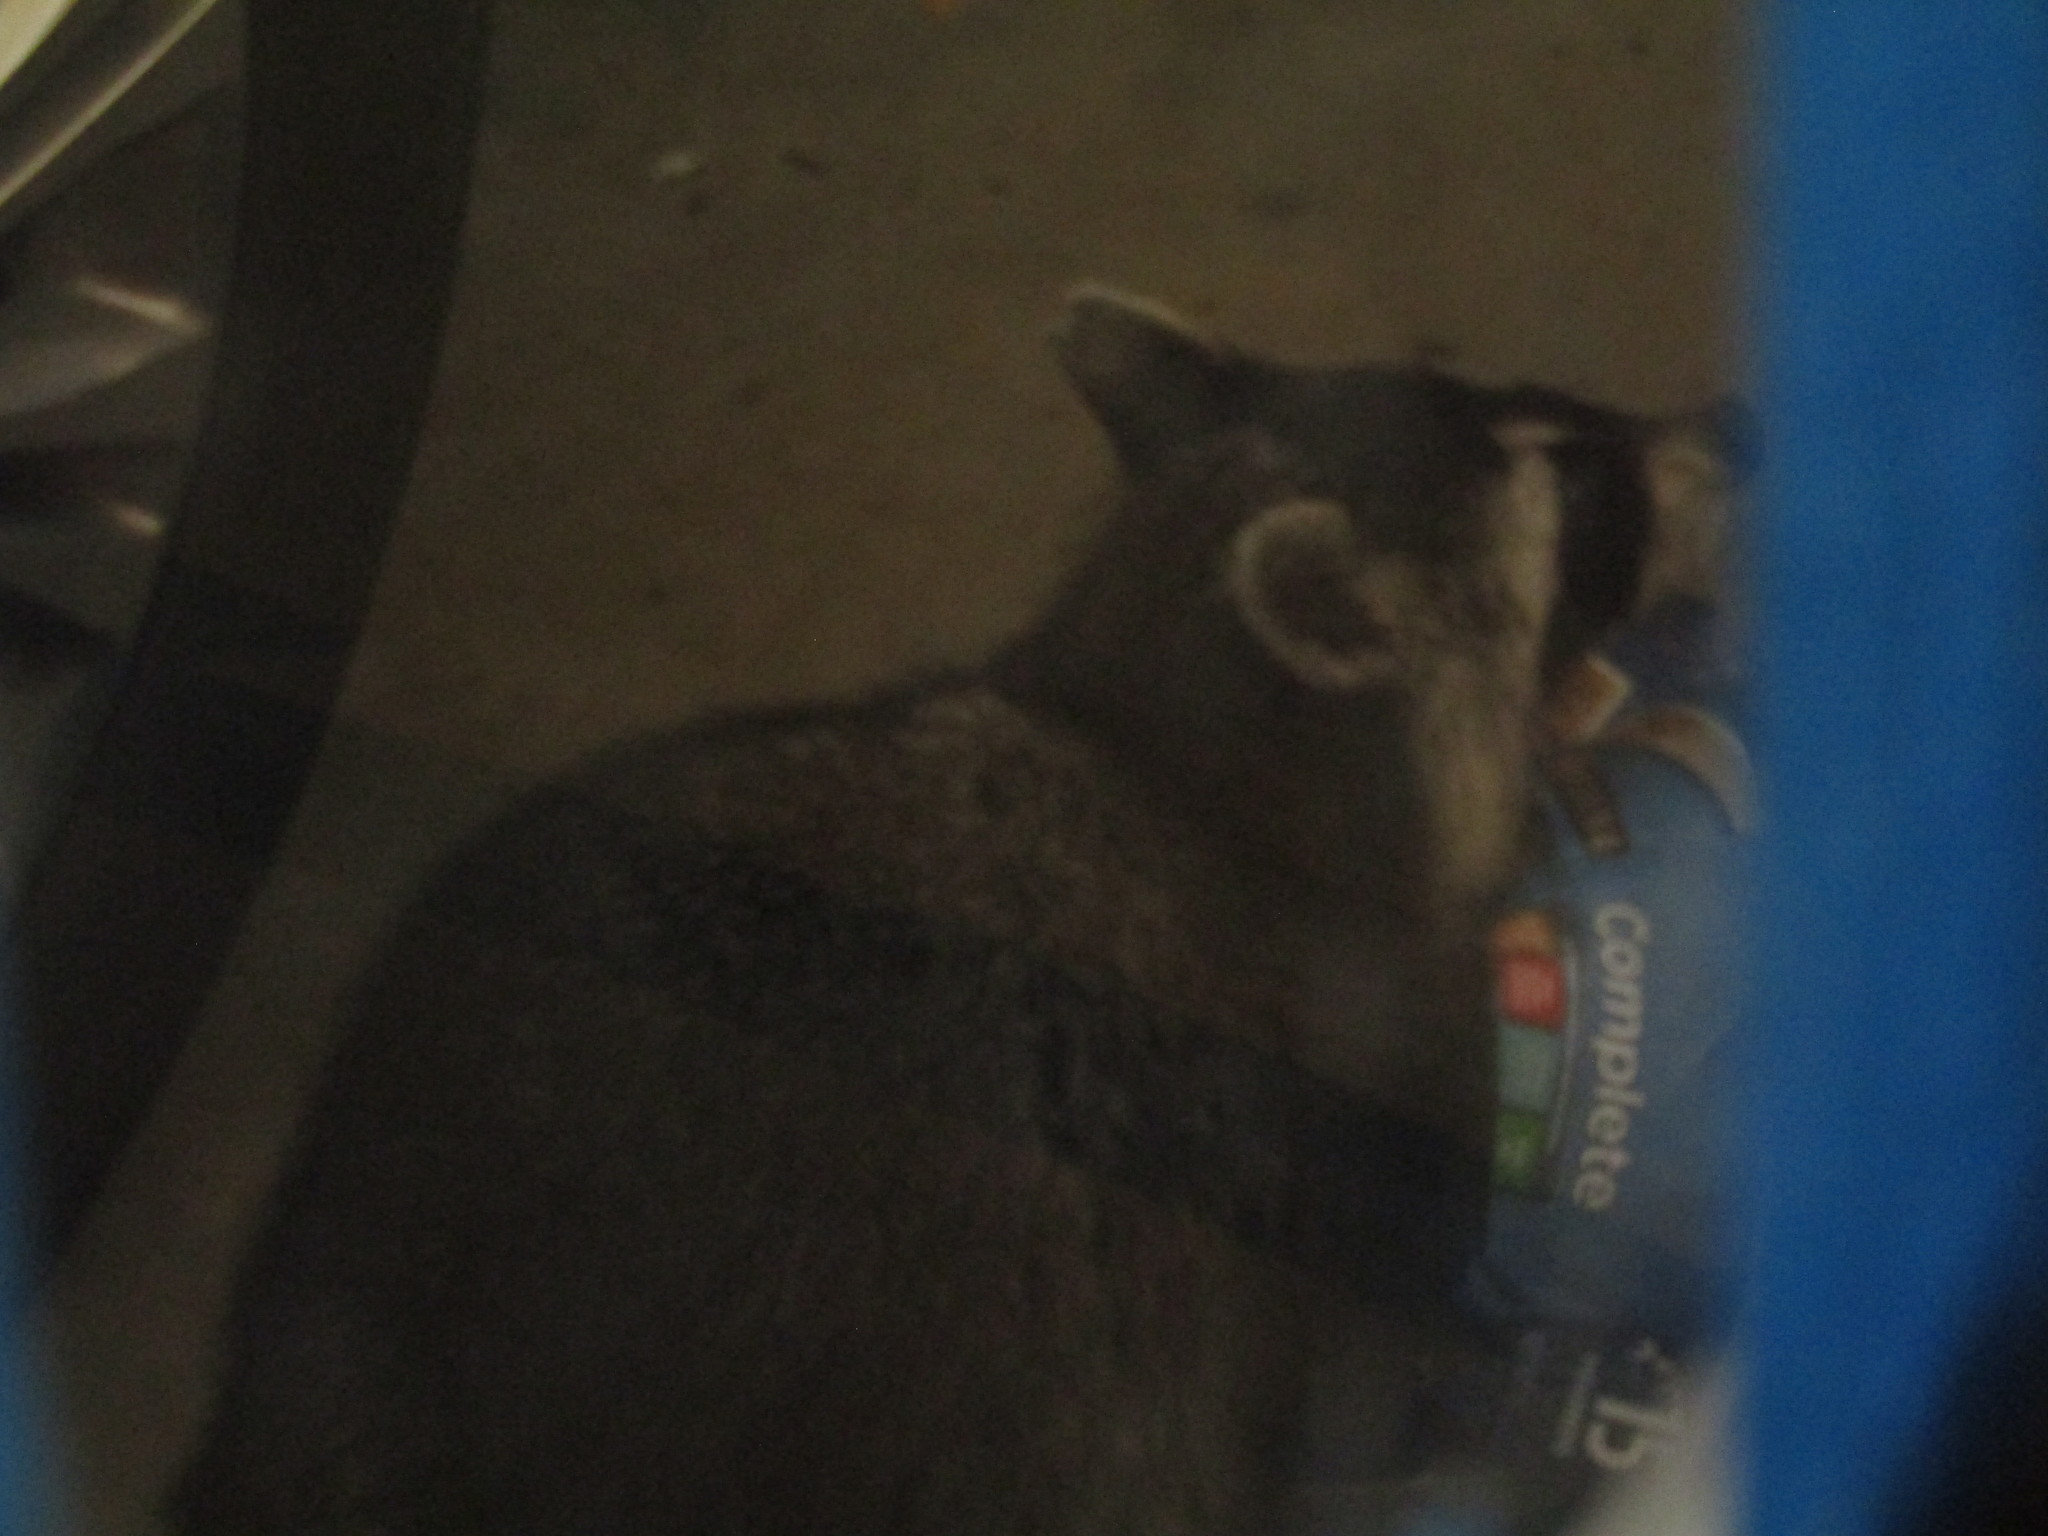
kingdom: Animalia
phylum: Chordata
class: Mammalia
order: Carnivora
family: Procyonidae
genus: Procyon
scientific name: Procyon lotor
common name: Raccoon
